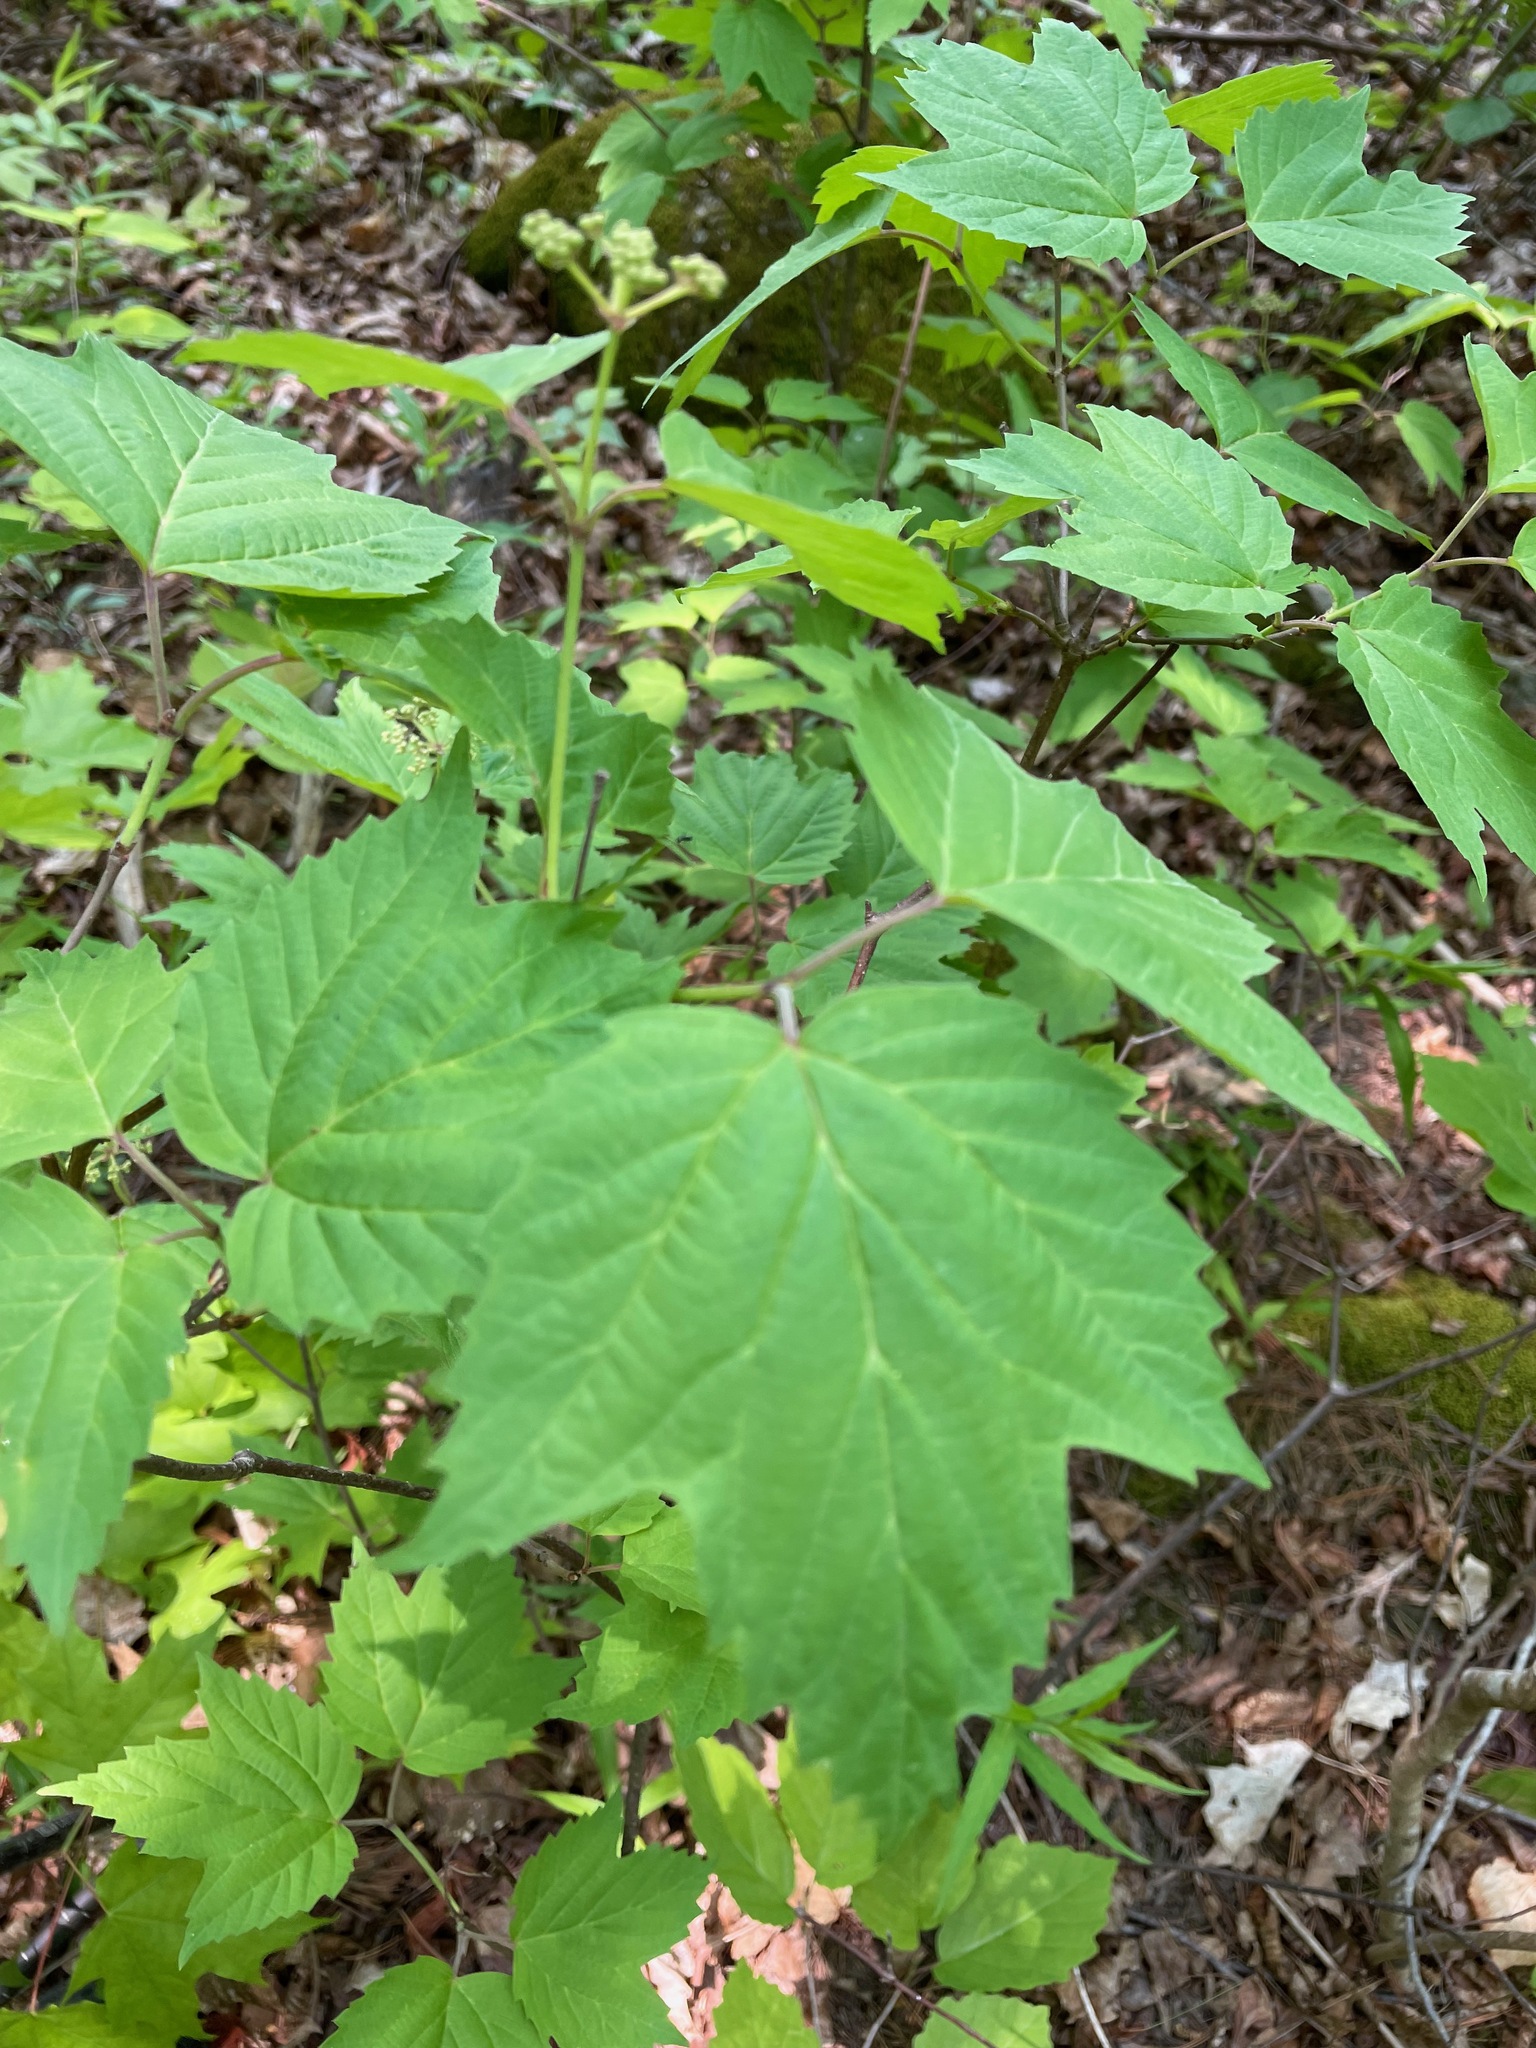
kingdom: Plantae
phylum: Tracheophyta
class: Magnoliopsida
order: Dipsacales
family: Viburnaceae
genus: Viburnum
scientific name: Viburnum acerifolium
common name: Dockmackie
